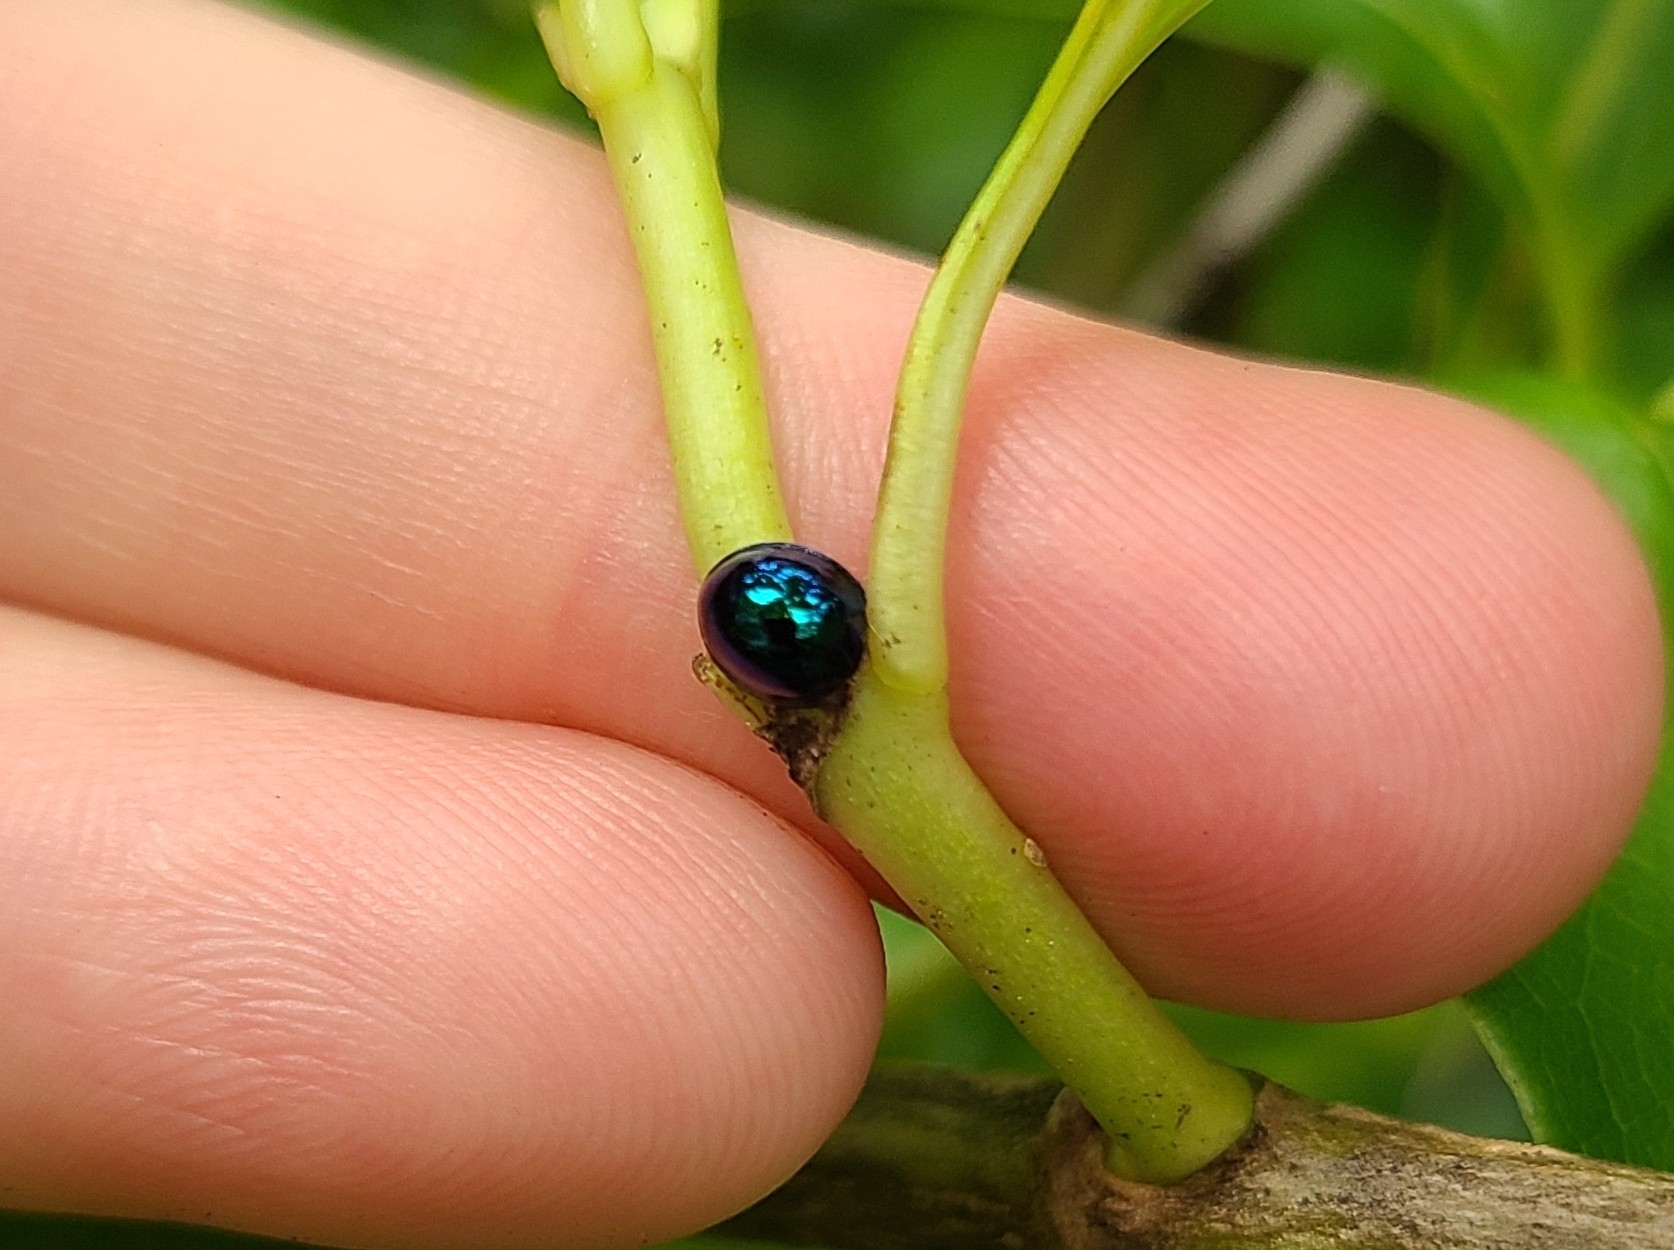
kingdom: Animalia
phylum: Arthropoda
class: Insecta
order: Coleoptera
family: Coccinellidae
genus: Halmus
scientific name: Halmus chalybeus
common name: Steel blue ladybird beetle
